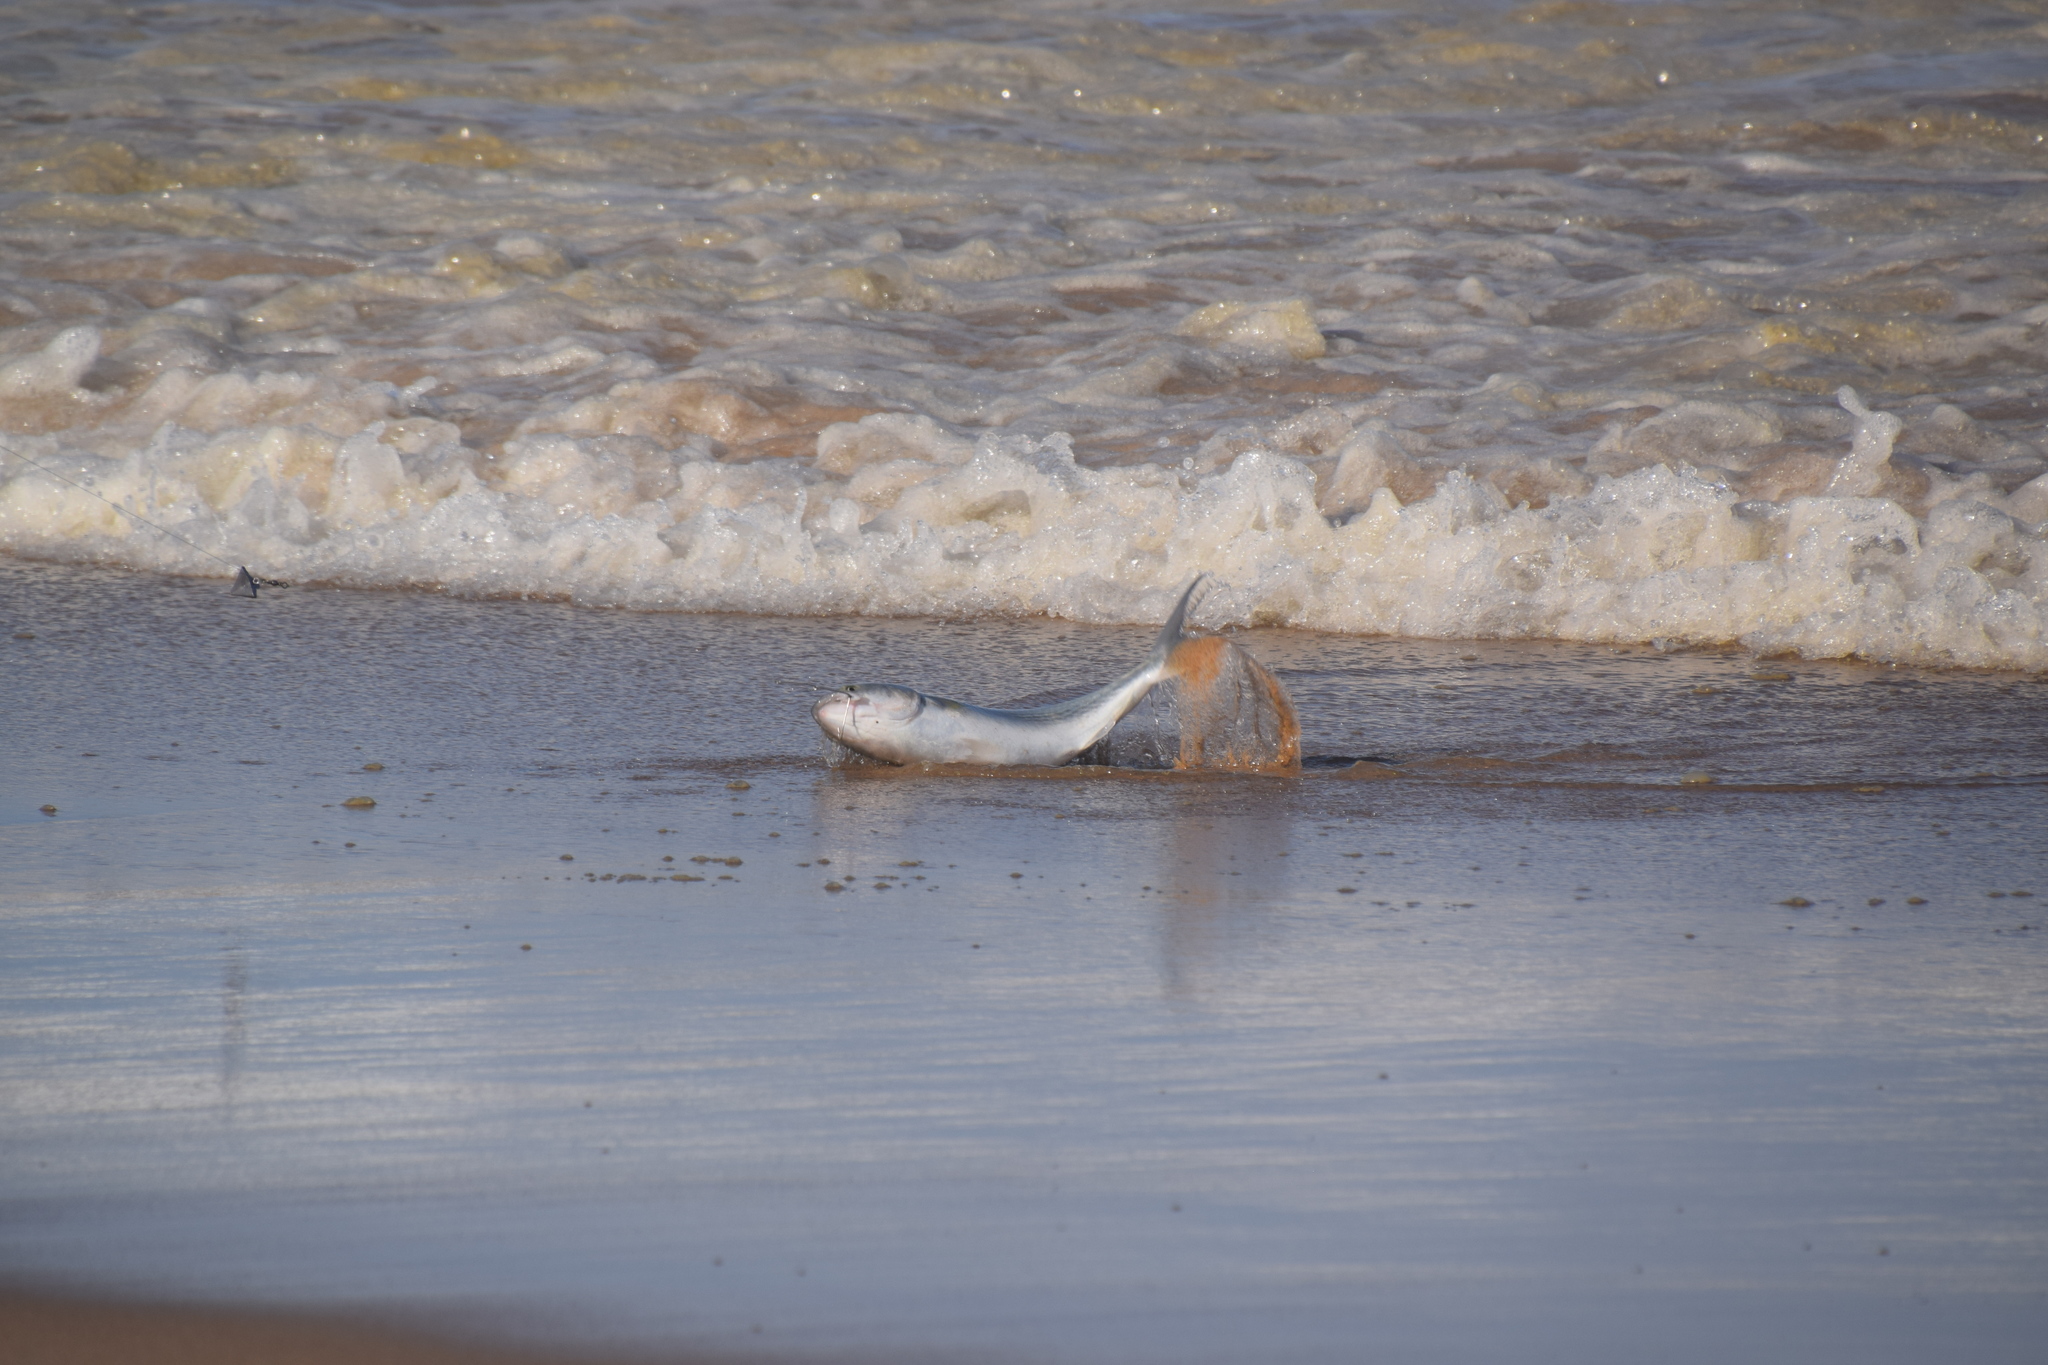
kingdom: Animalia
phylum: Chordata
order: Perciformes
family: Arripidae
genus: Arripis
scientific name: Arripis trutta
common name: Kahawai
